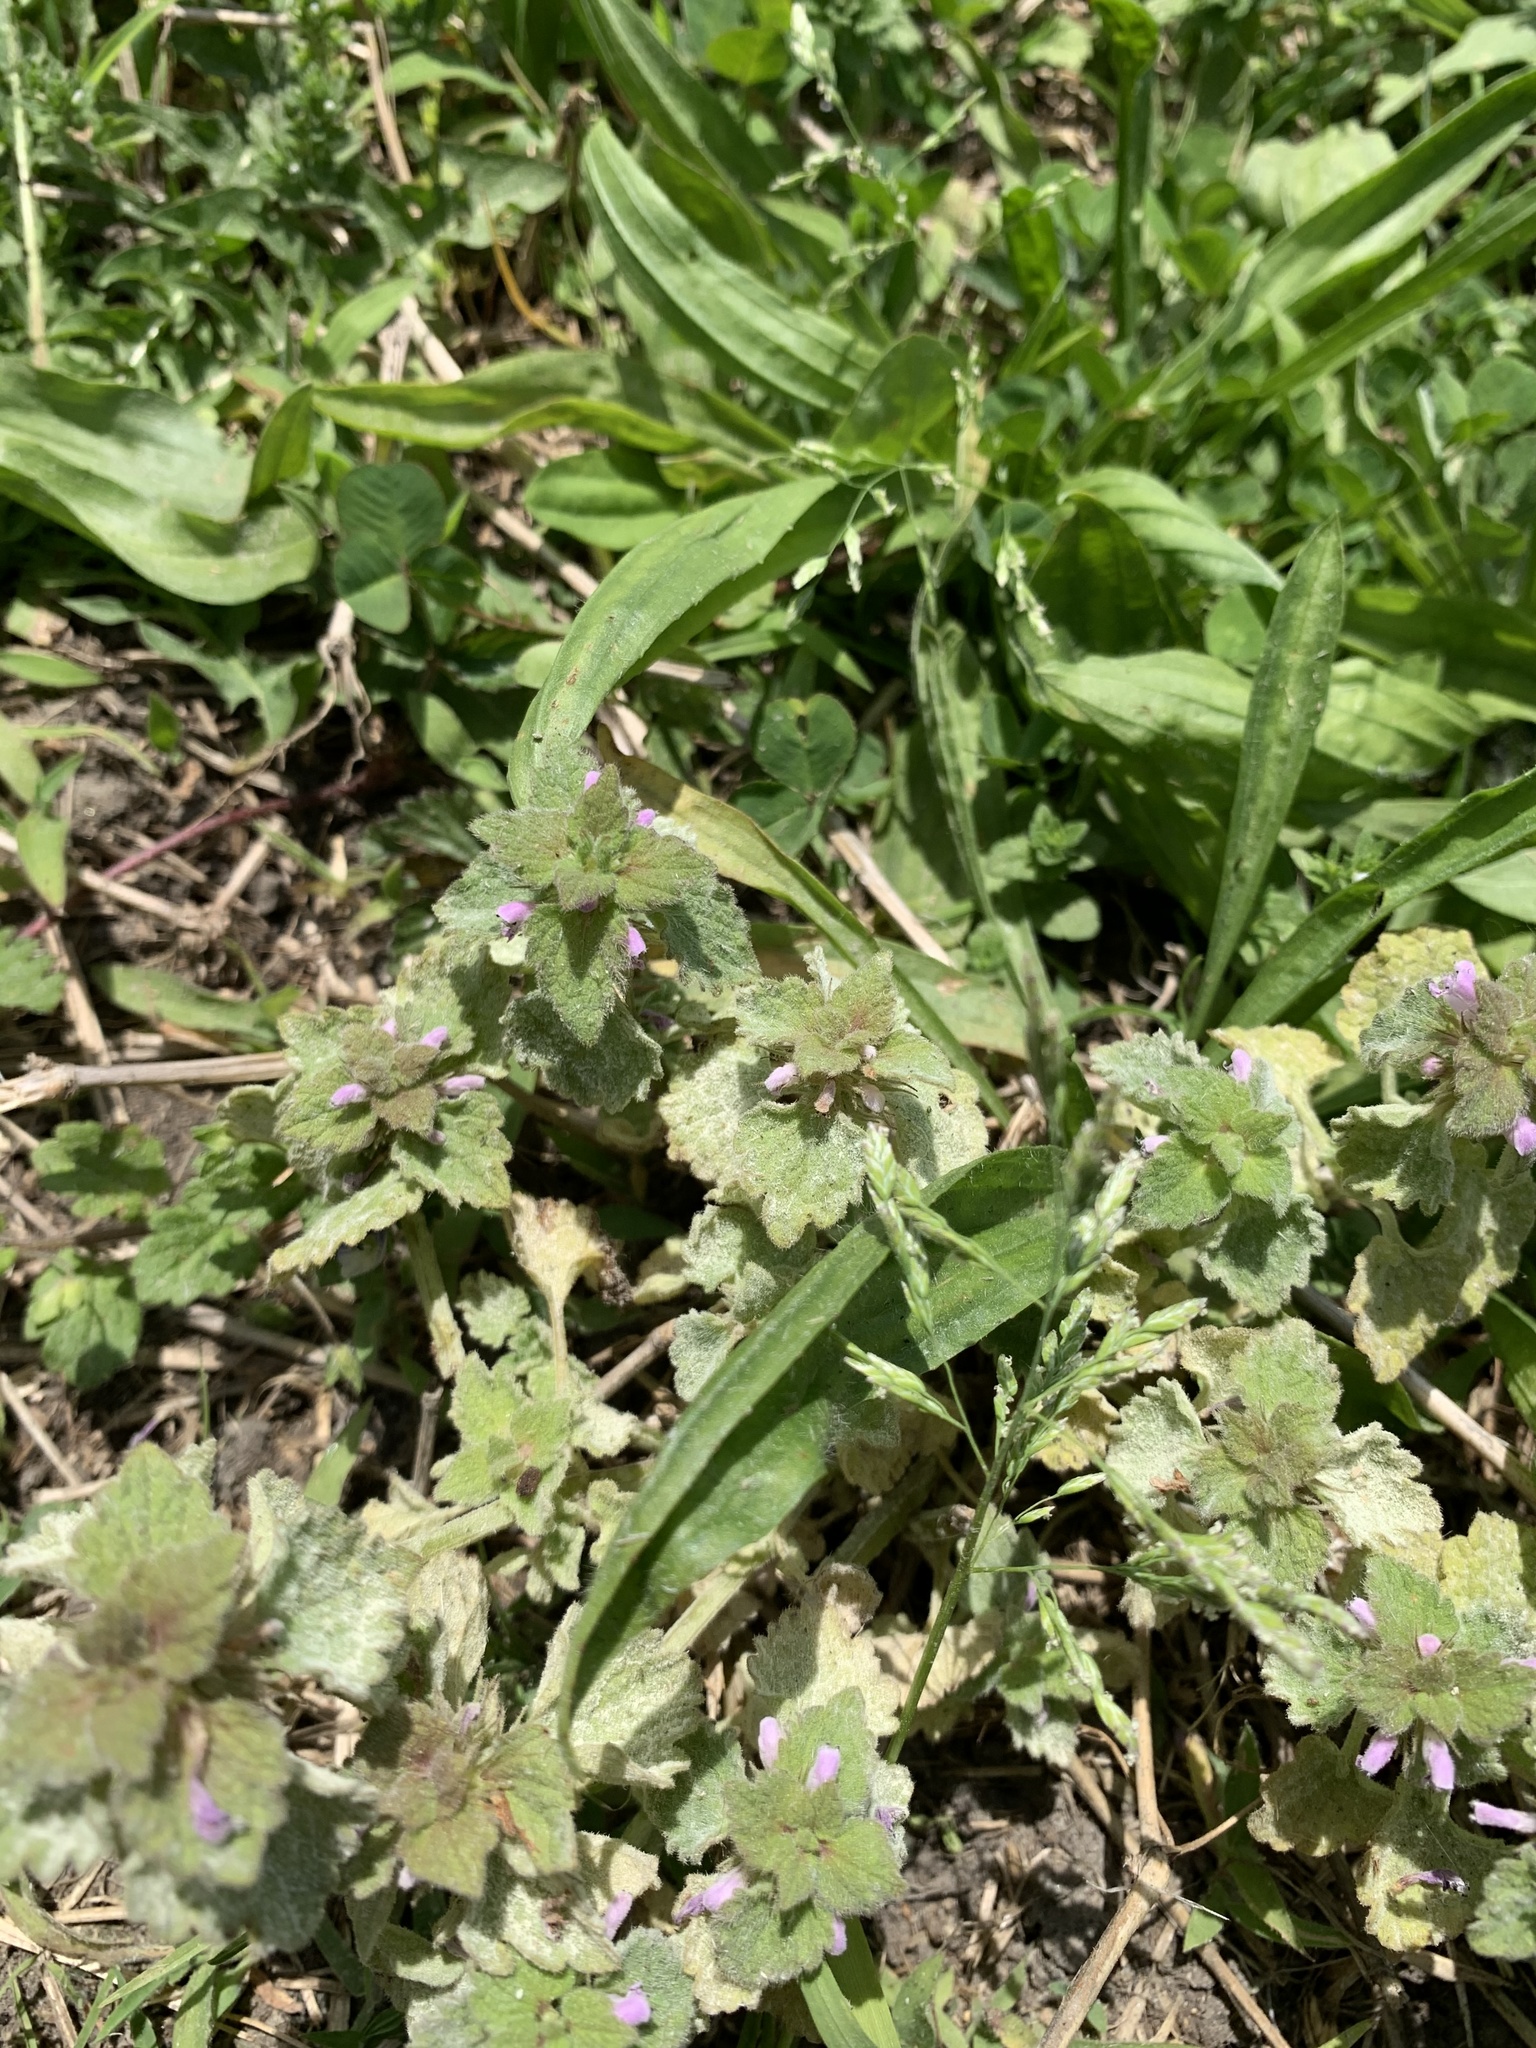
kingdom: Plantae
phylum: Tracheophyta
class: Magnoliopsida
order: Lamiales
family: Lamiaceae
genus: Lamium
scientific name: Lamium purpureum
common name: Red dead-nettle
